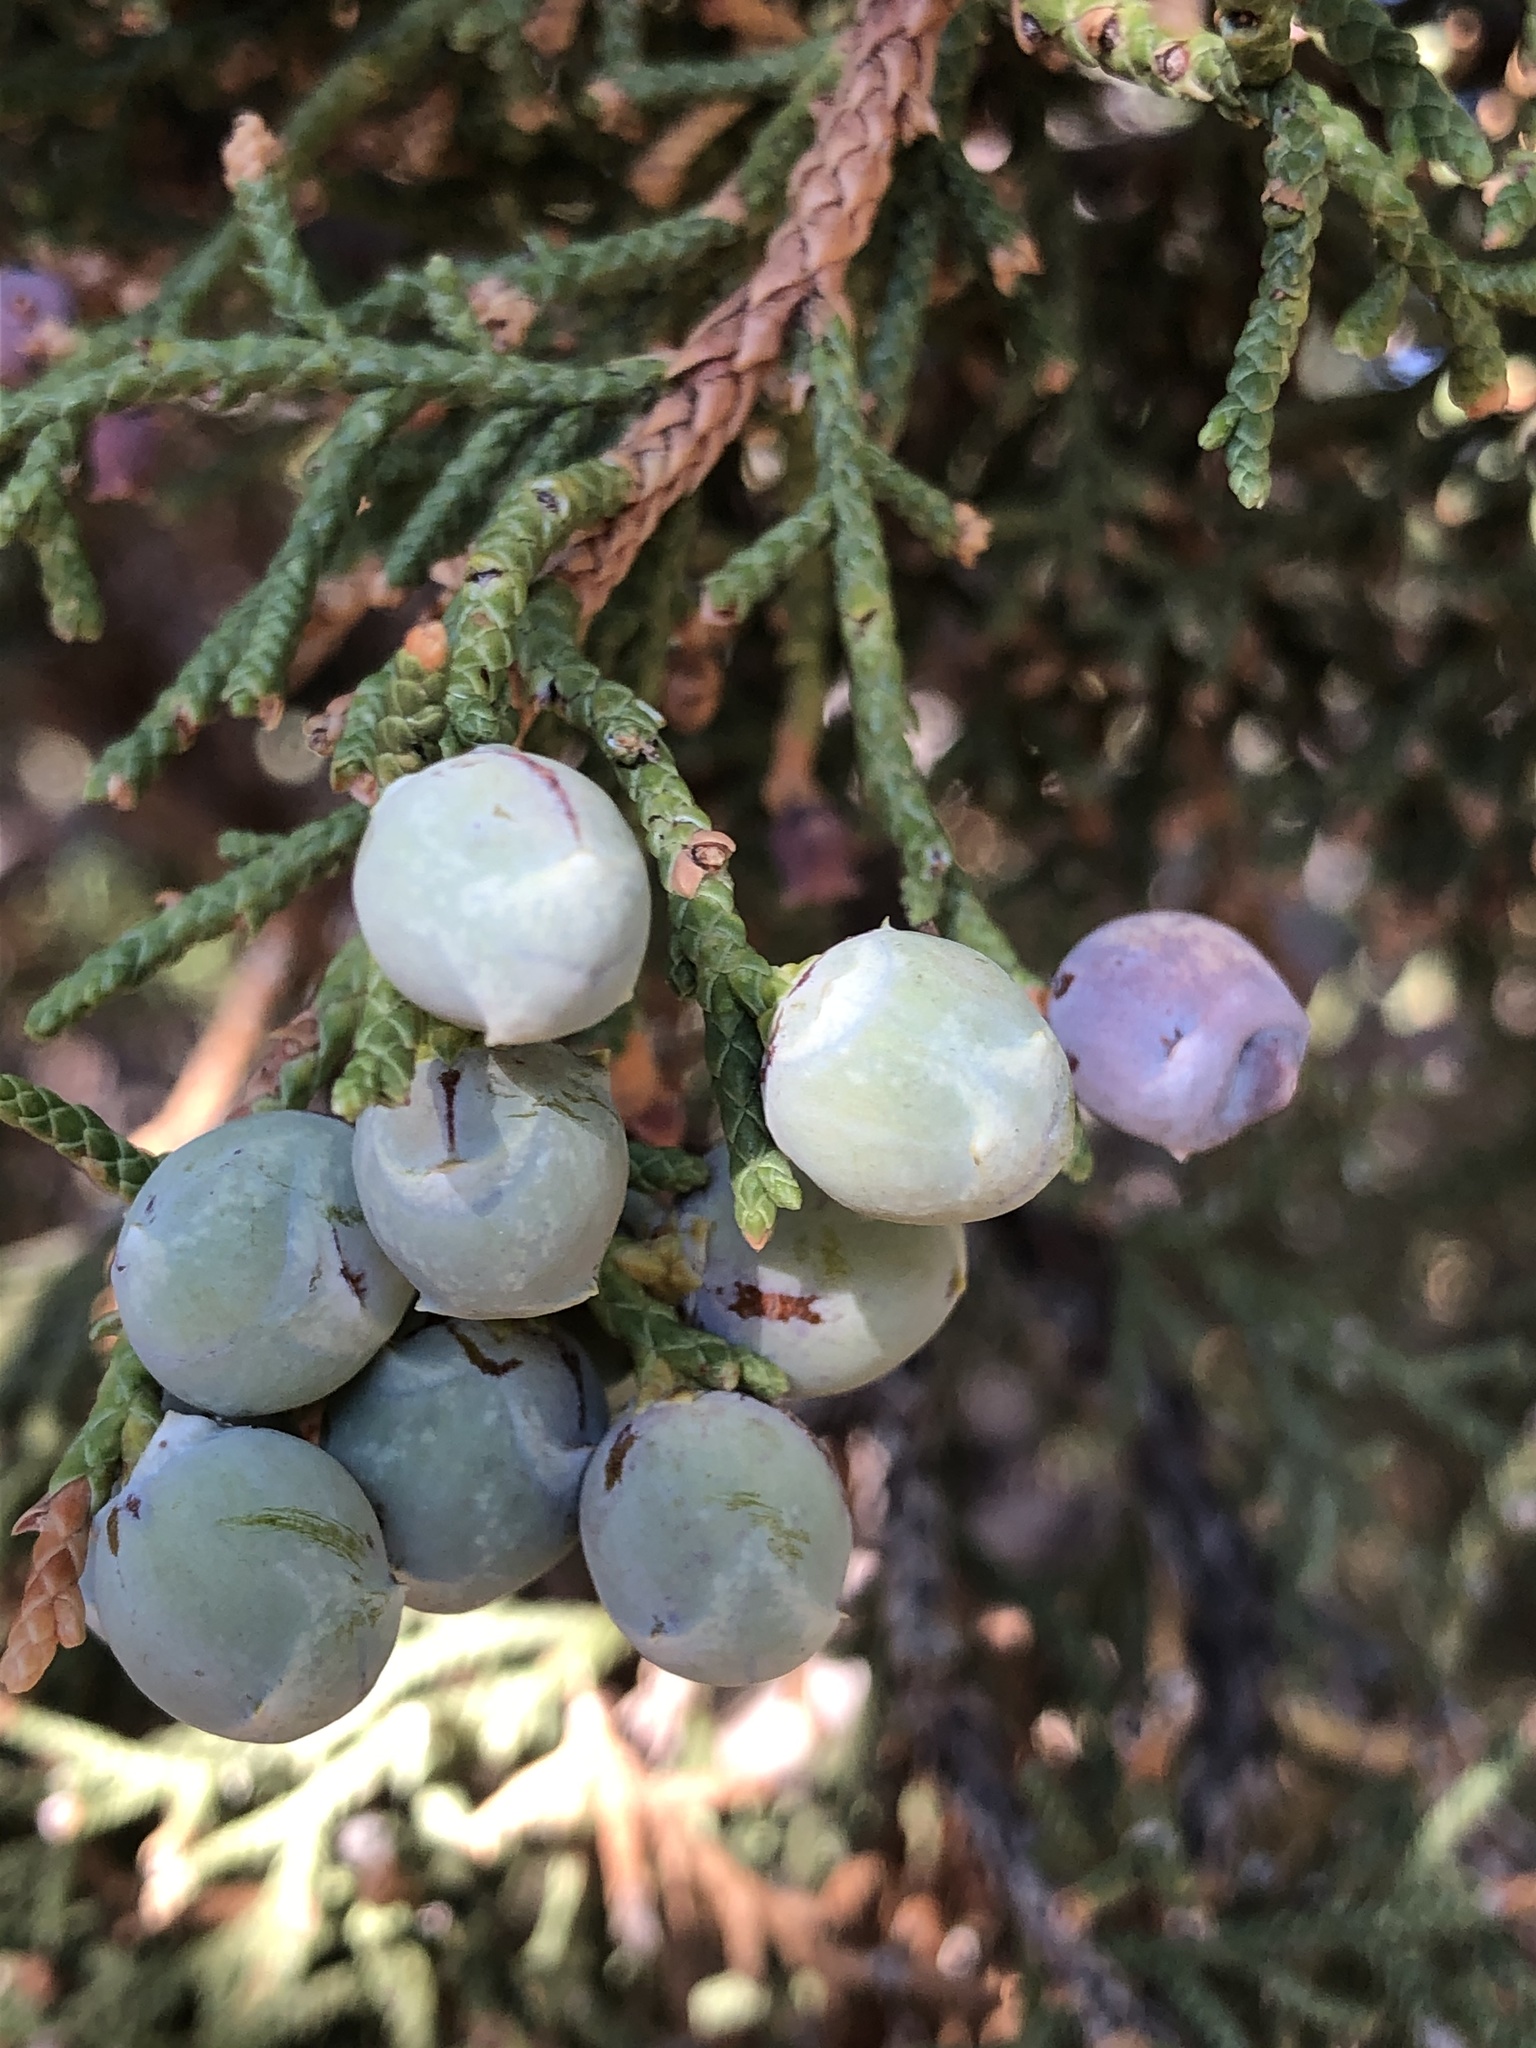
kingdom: Plantae
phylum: Tracheophyta
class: Pinopsida
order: Pinales
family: Cupressaceae
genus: Juniperus
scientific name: Juniperus osteosperma
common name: Utah juniper
